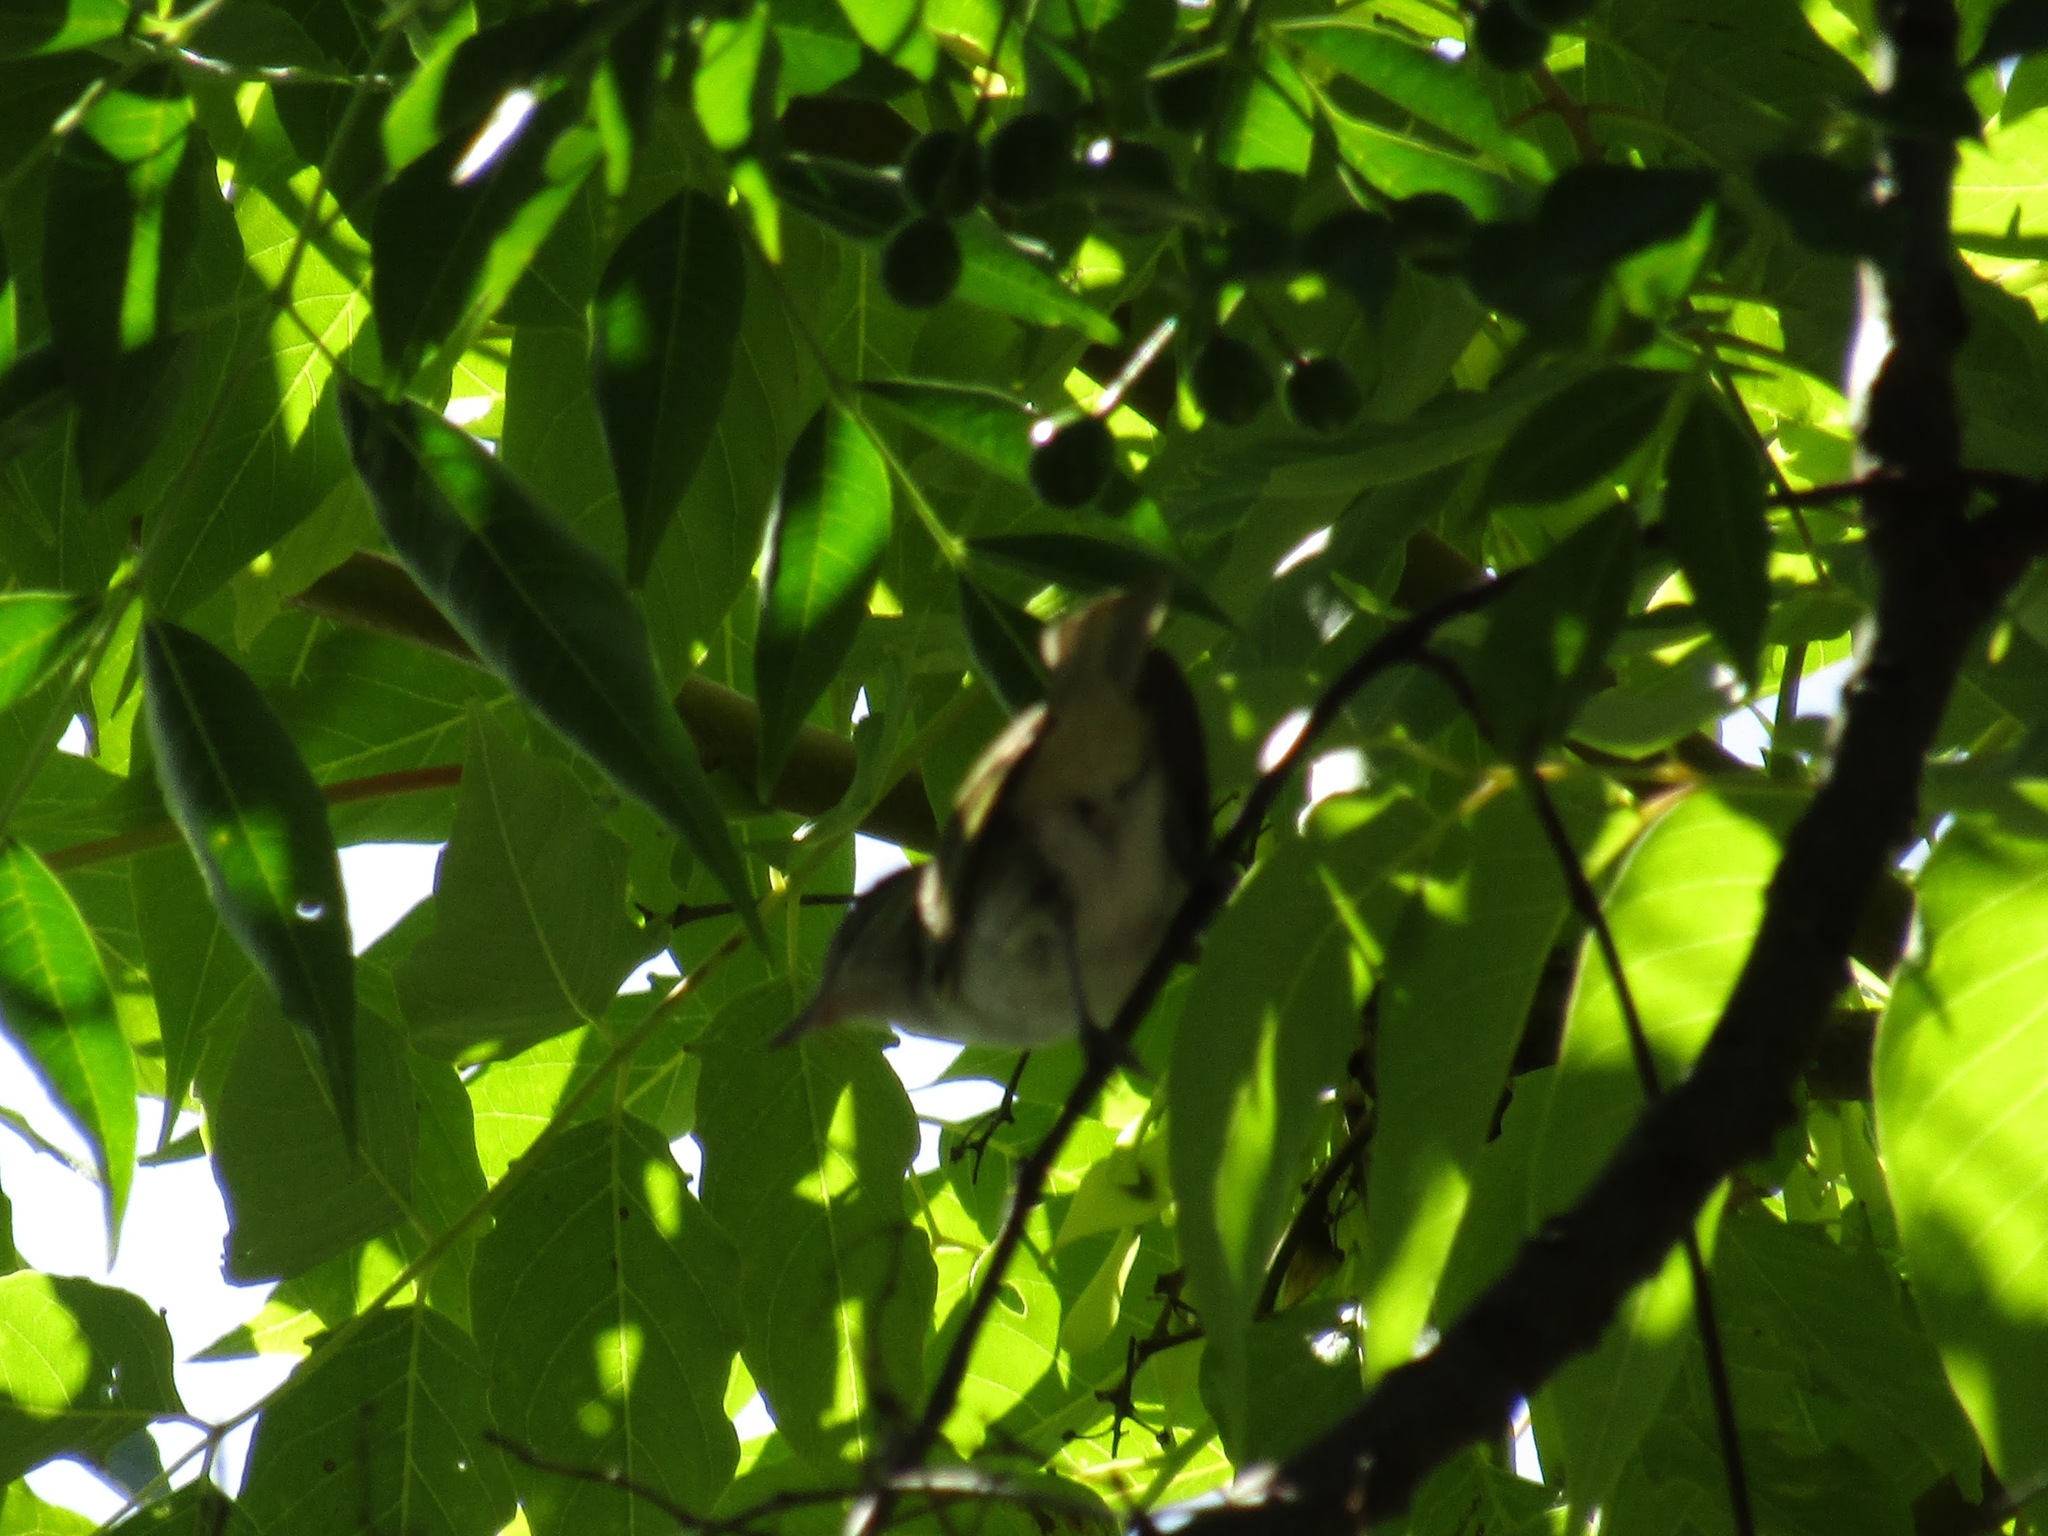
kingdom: Animalia
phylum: Chordata
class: Aves
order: Passeriformes
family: Vireonidae
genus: Vireo
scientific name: Vireo olivaceus
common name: Red-eyed vireo
